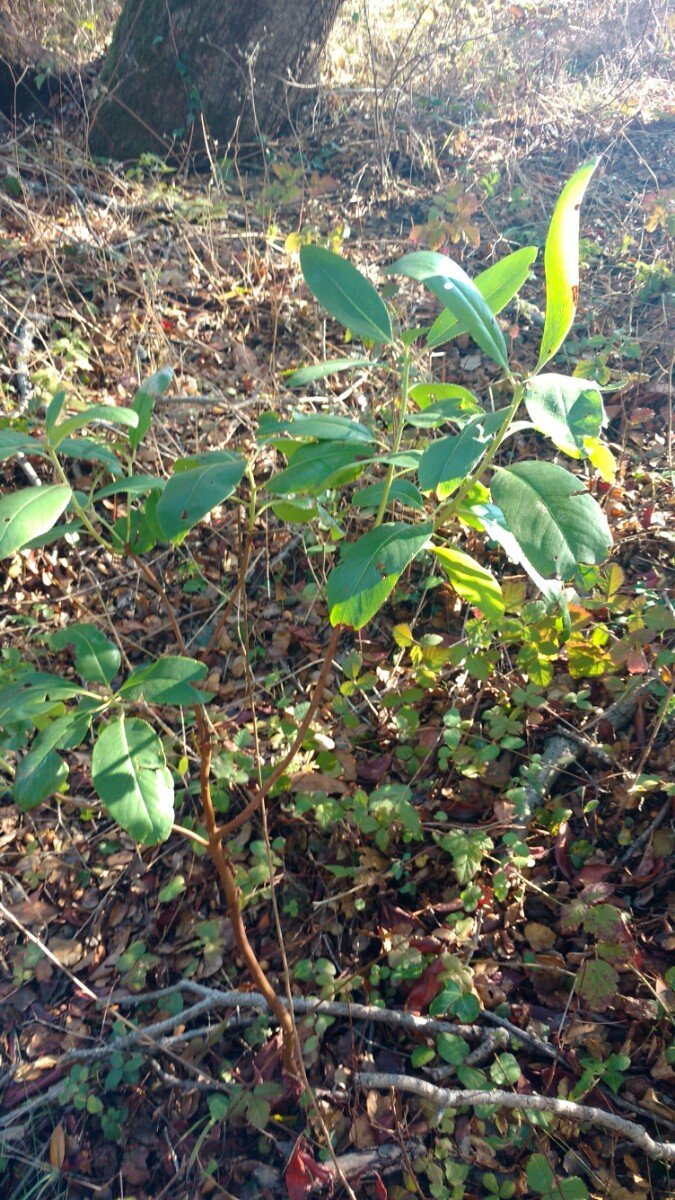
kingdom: Plantae
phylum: Tracheophyta
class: Magnoliopsida
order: Ericales
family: Ericaceae
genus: Arbutus
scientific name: Arbutus menziesii
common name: Pacific madrone
